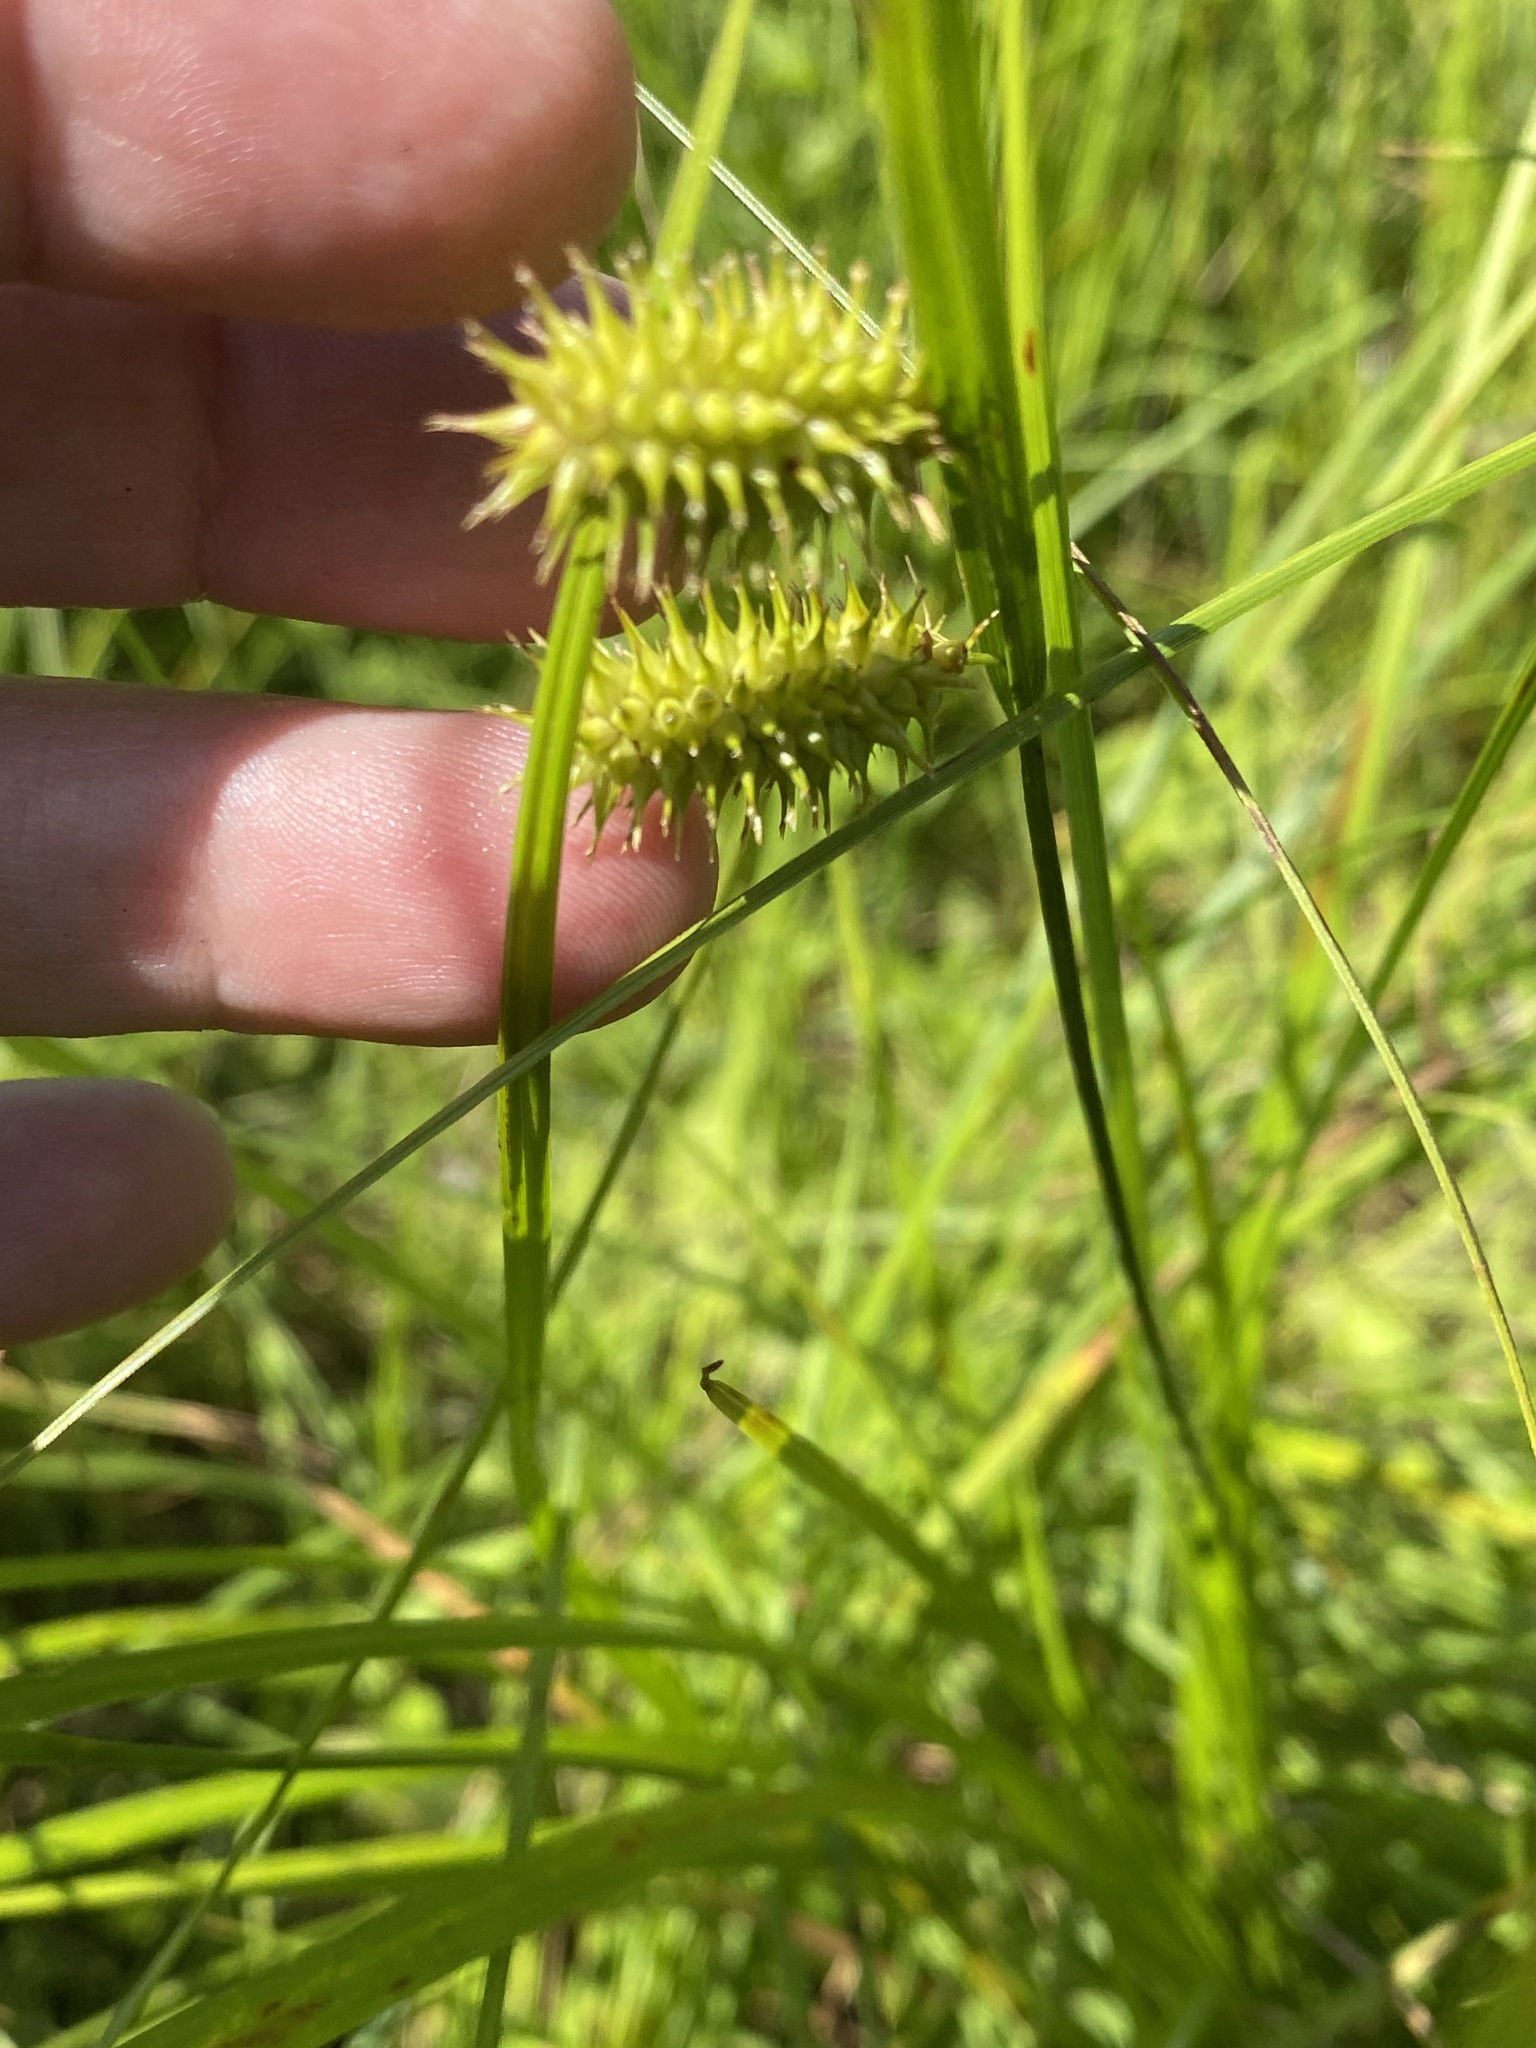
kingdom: Plantae
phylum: Tracheophyta
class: Liliopsida
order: Poales
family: Cyperaceae
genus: Carex
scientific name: Carex hystericina
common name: Bottlebrush sedge
